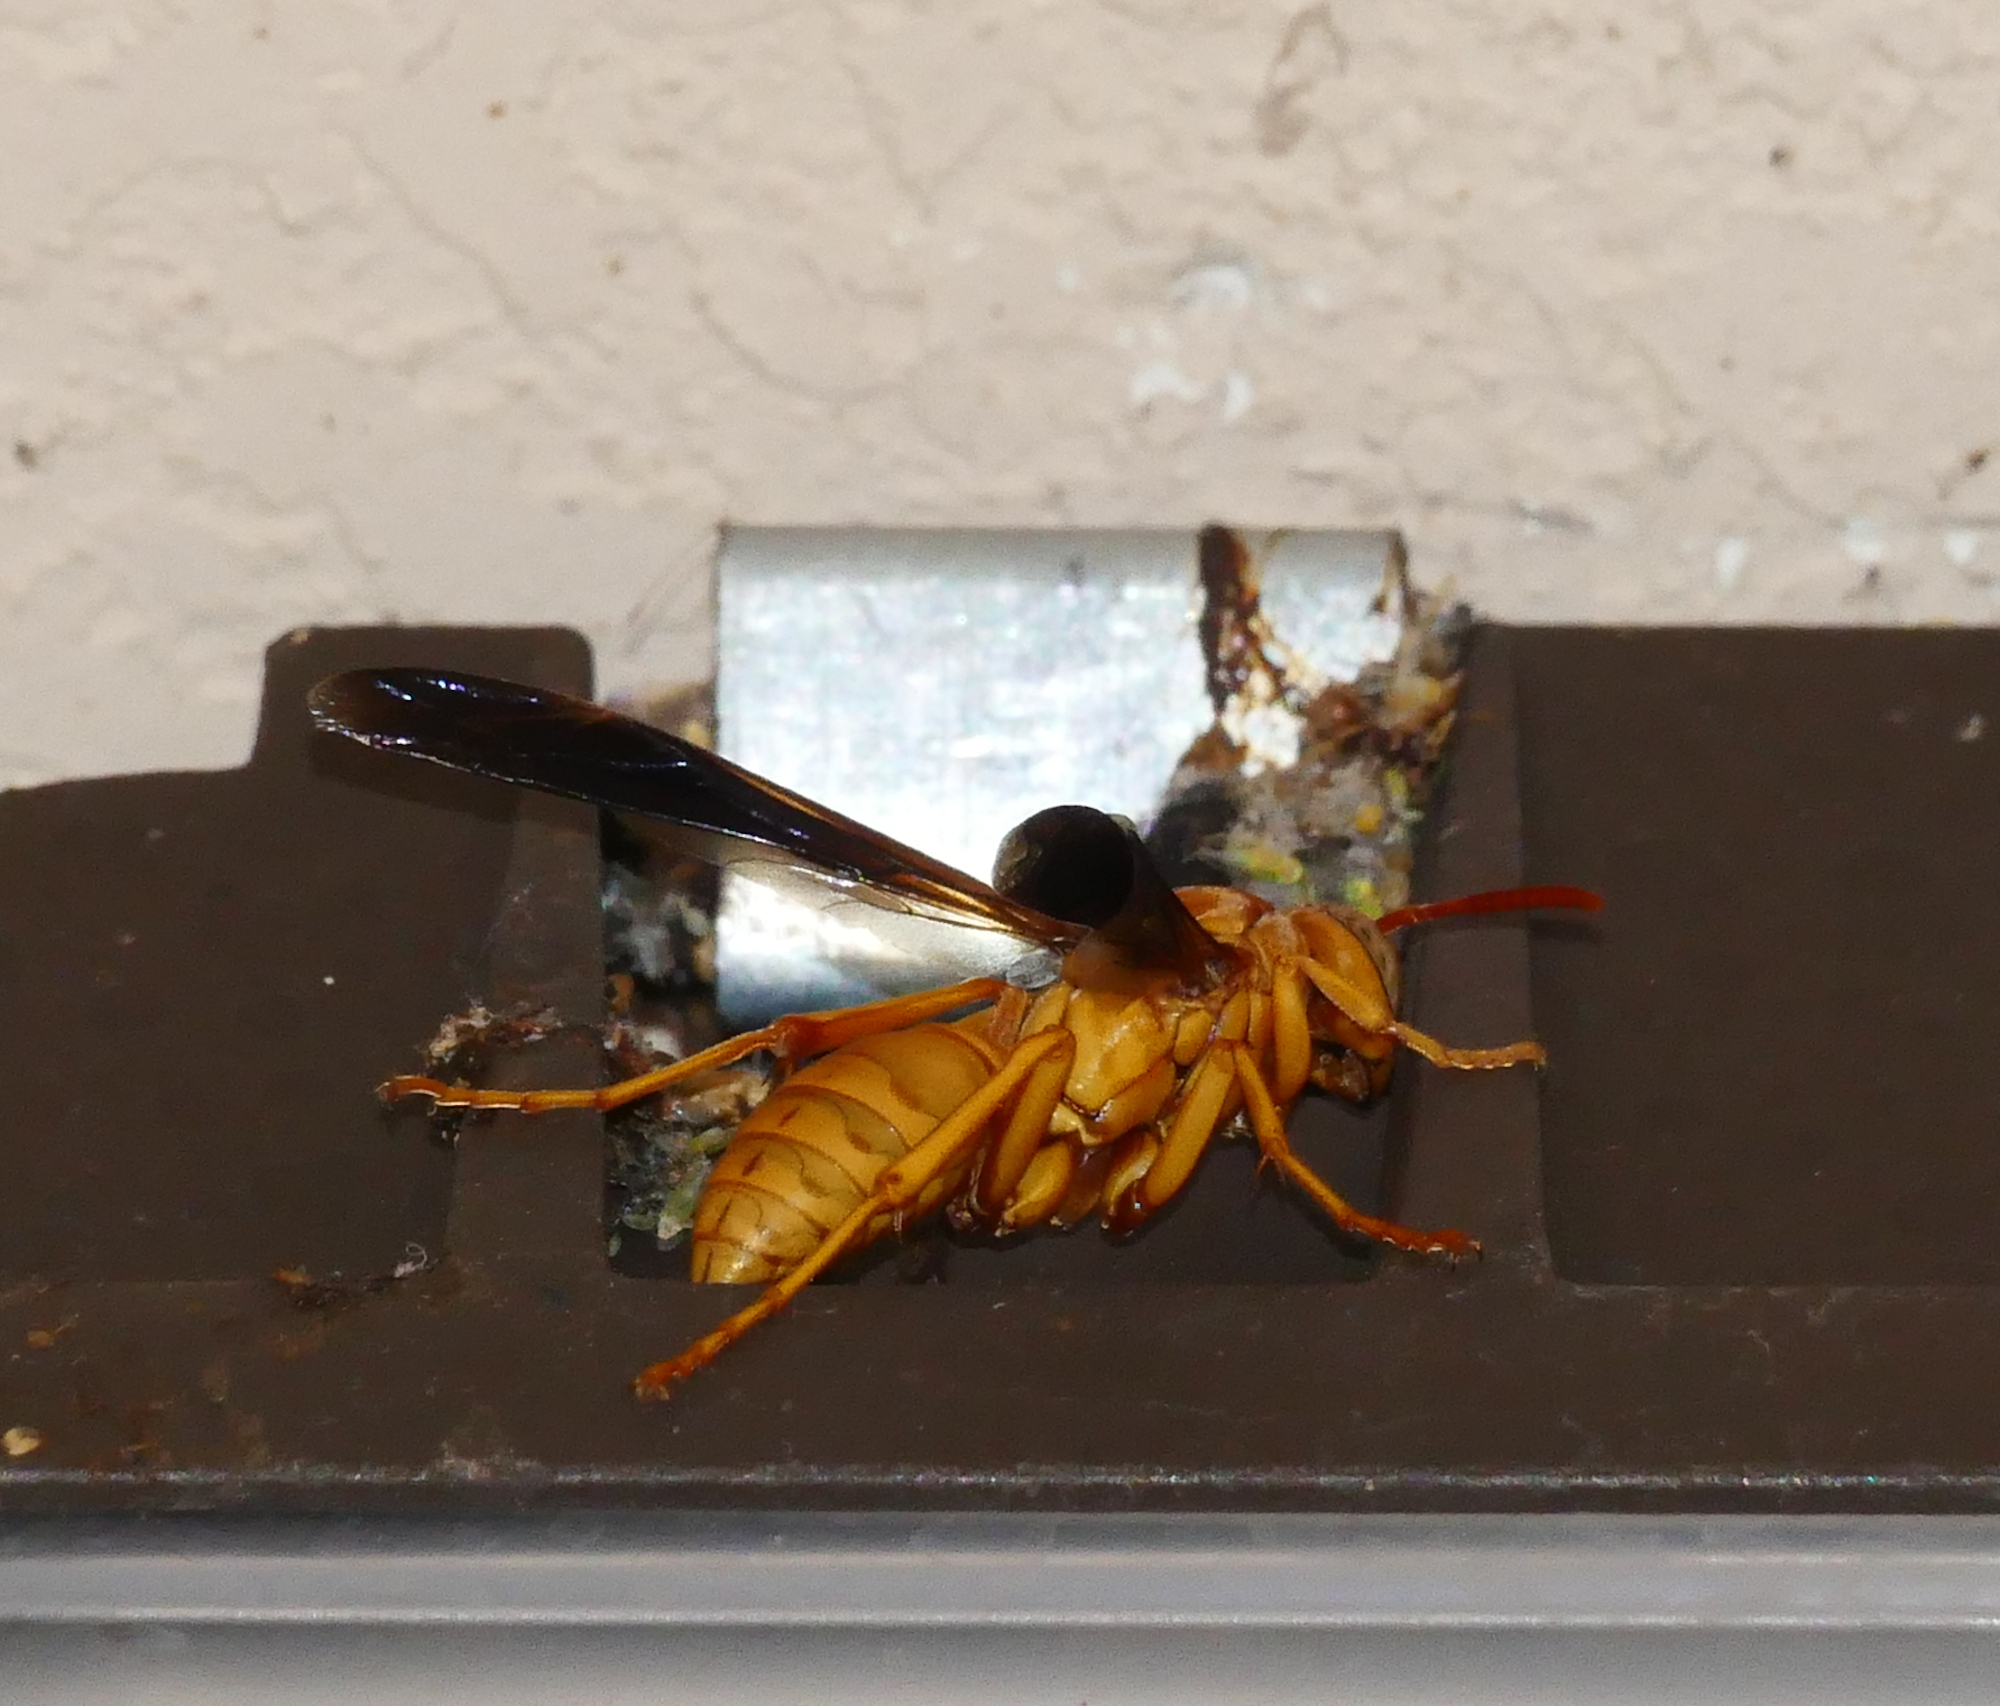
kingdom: Animalia
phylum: Arthropoda
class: Insecta
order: Hymenoptera
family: Eumenidae
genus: Polistes
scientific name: Polistes flavus
